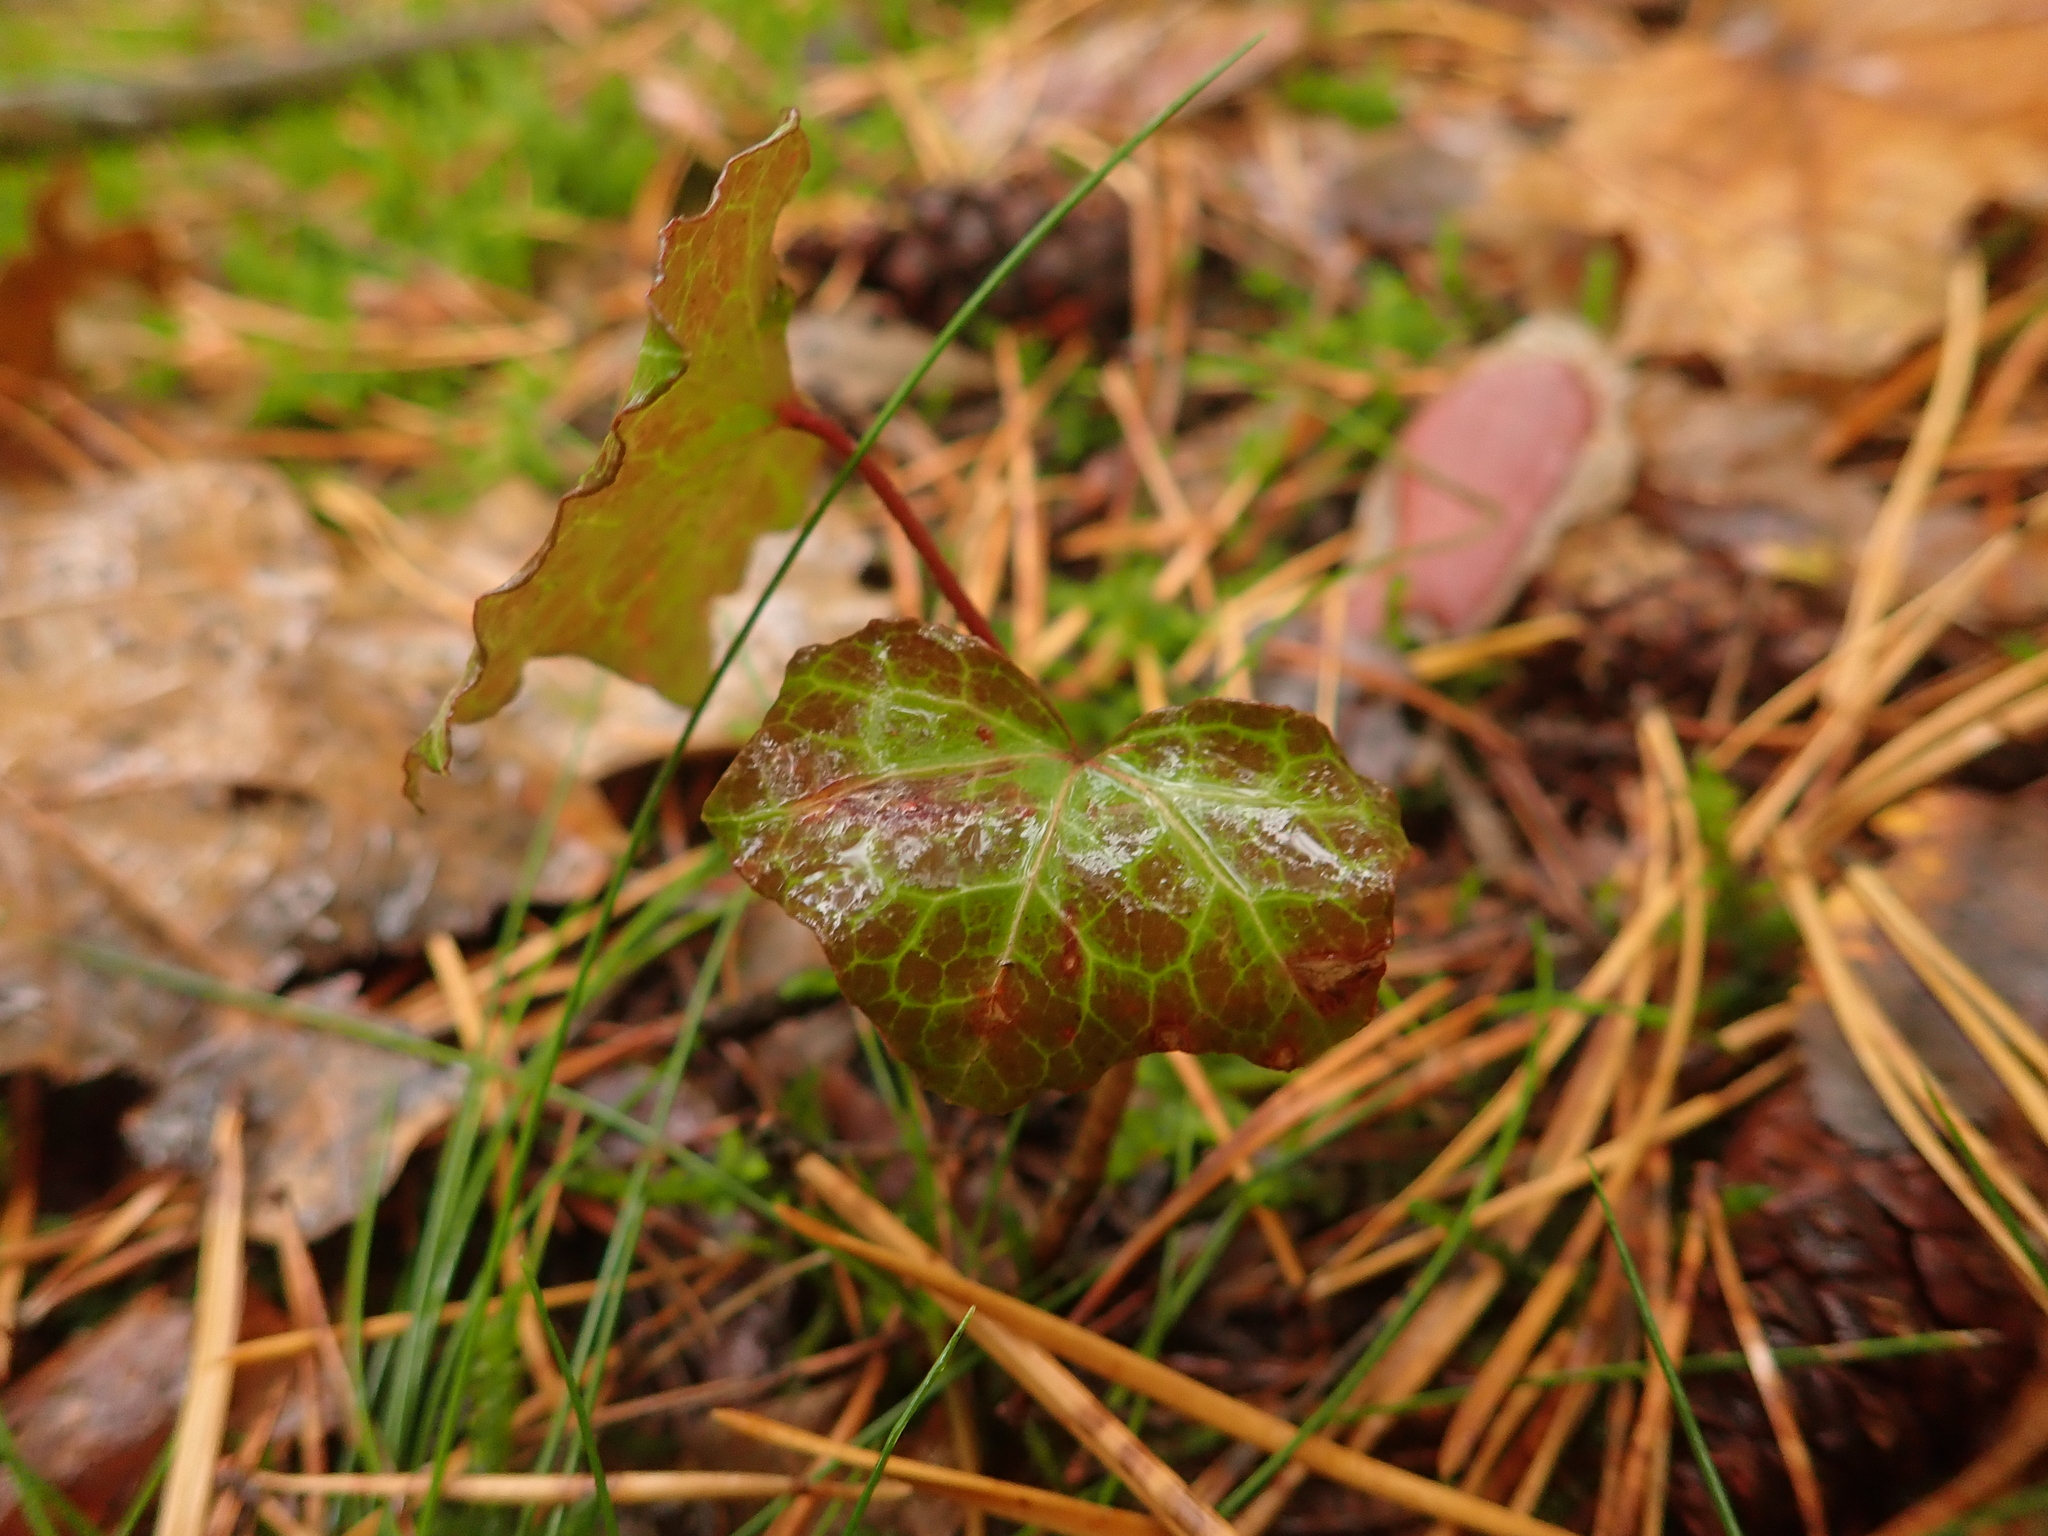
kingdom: Plantae
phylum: Tracheophyta
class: Magnoliopsida
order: Apiales
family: Araliaceae
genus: Hedera
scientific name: Hedera helix
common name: Ivy
